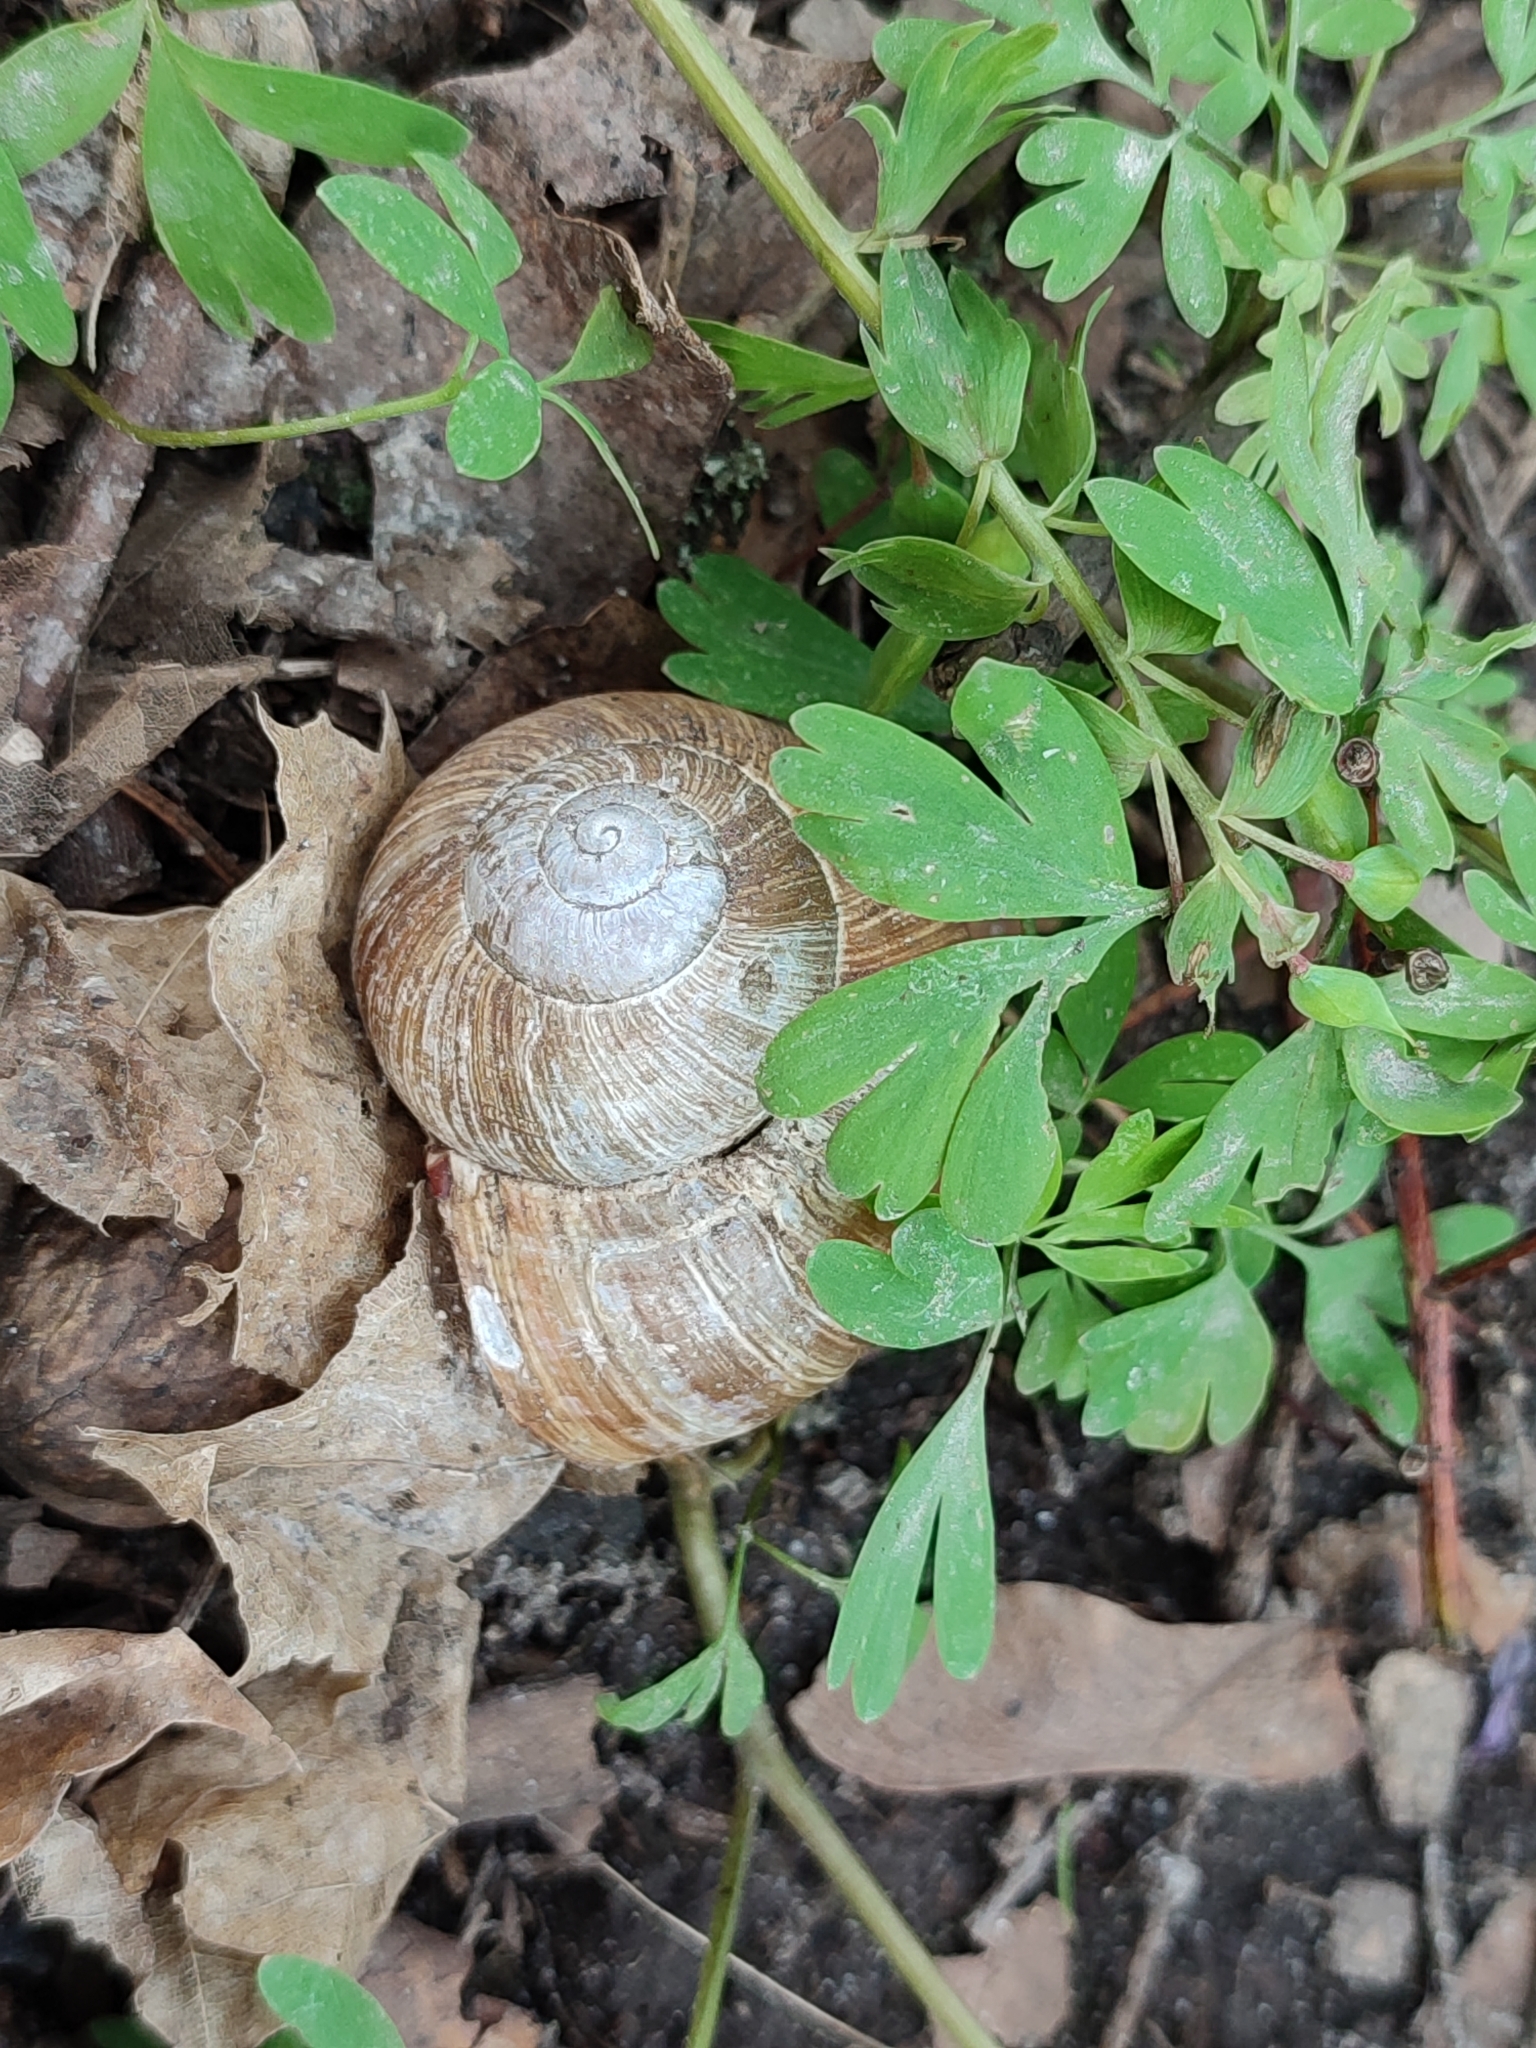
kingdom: Animalia
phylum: Mollusca
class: Gastropoda
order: Stylommatophora
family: Helicidae
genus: Helix
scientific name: Helix pomatia
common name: Roman snail
